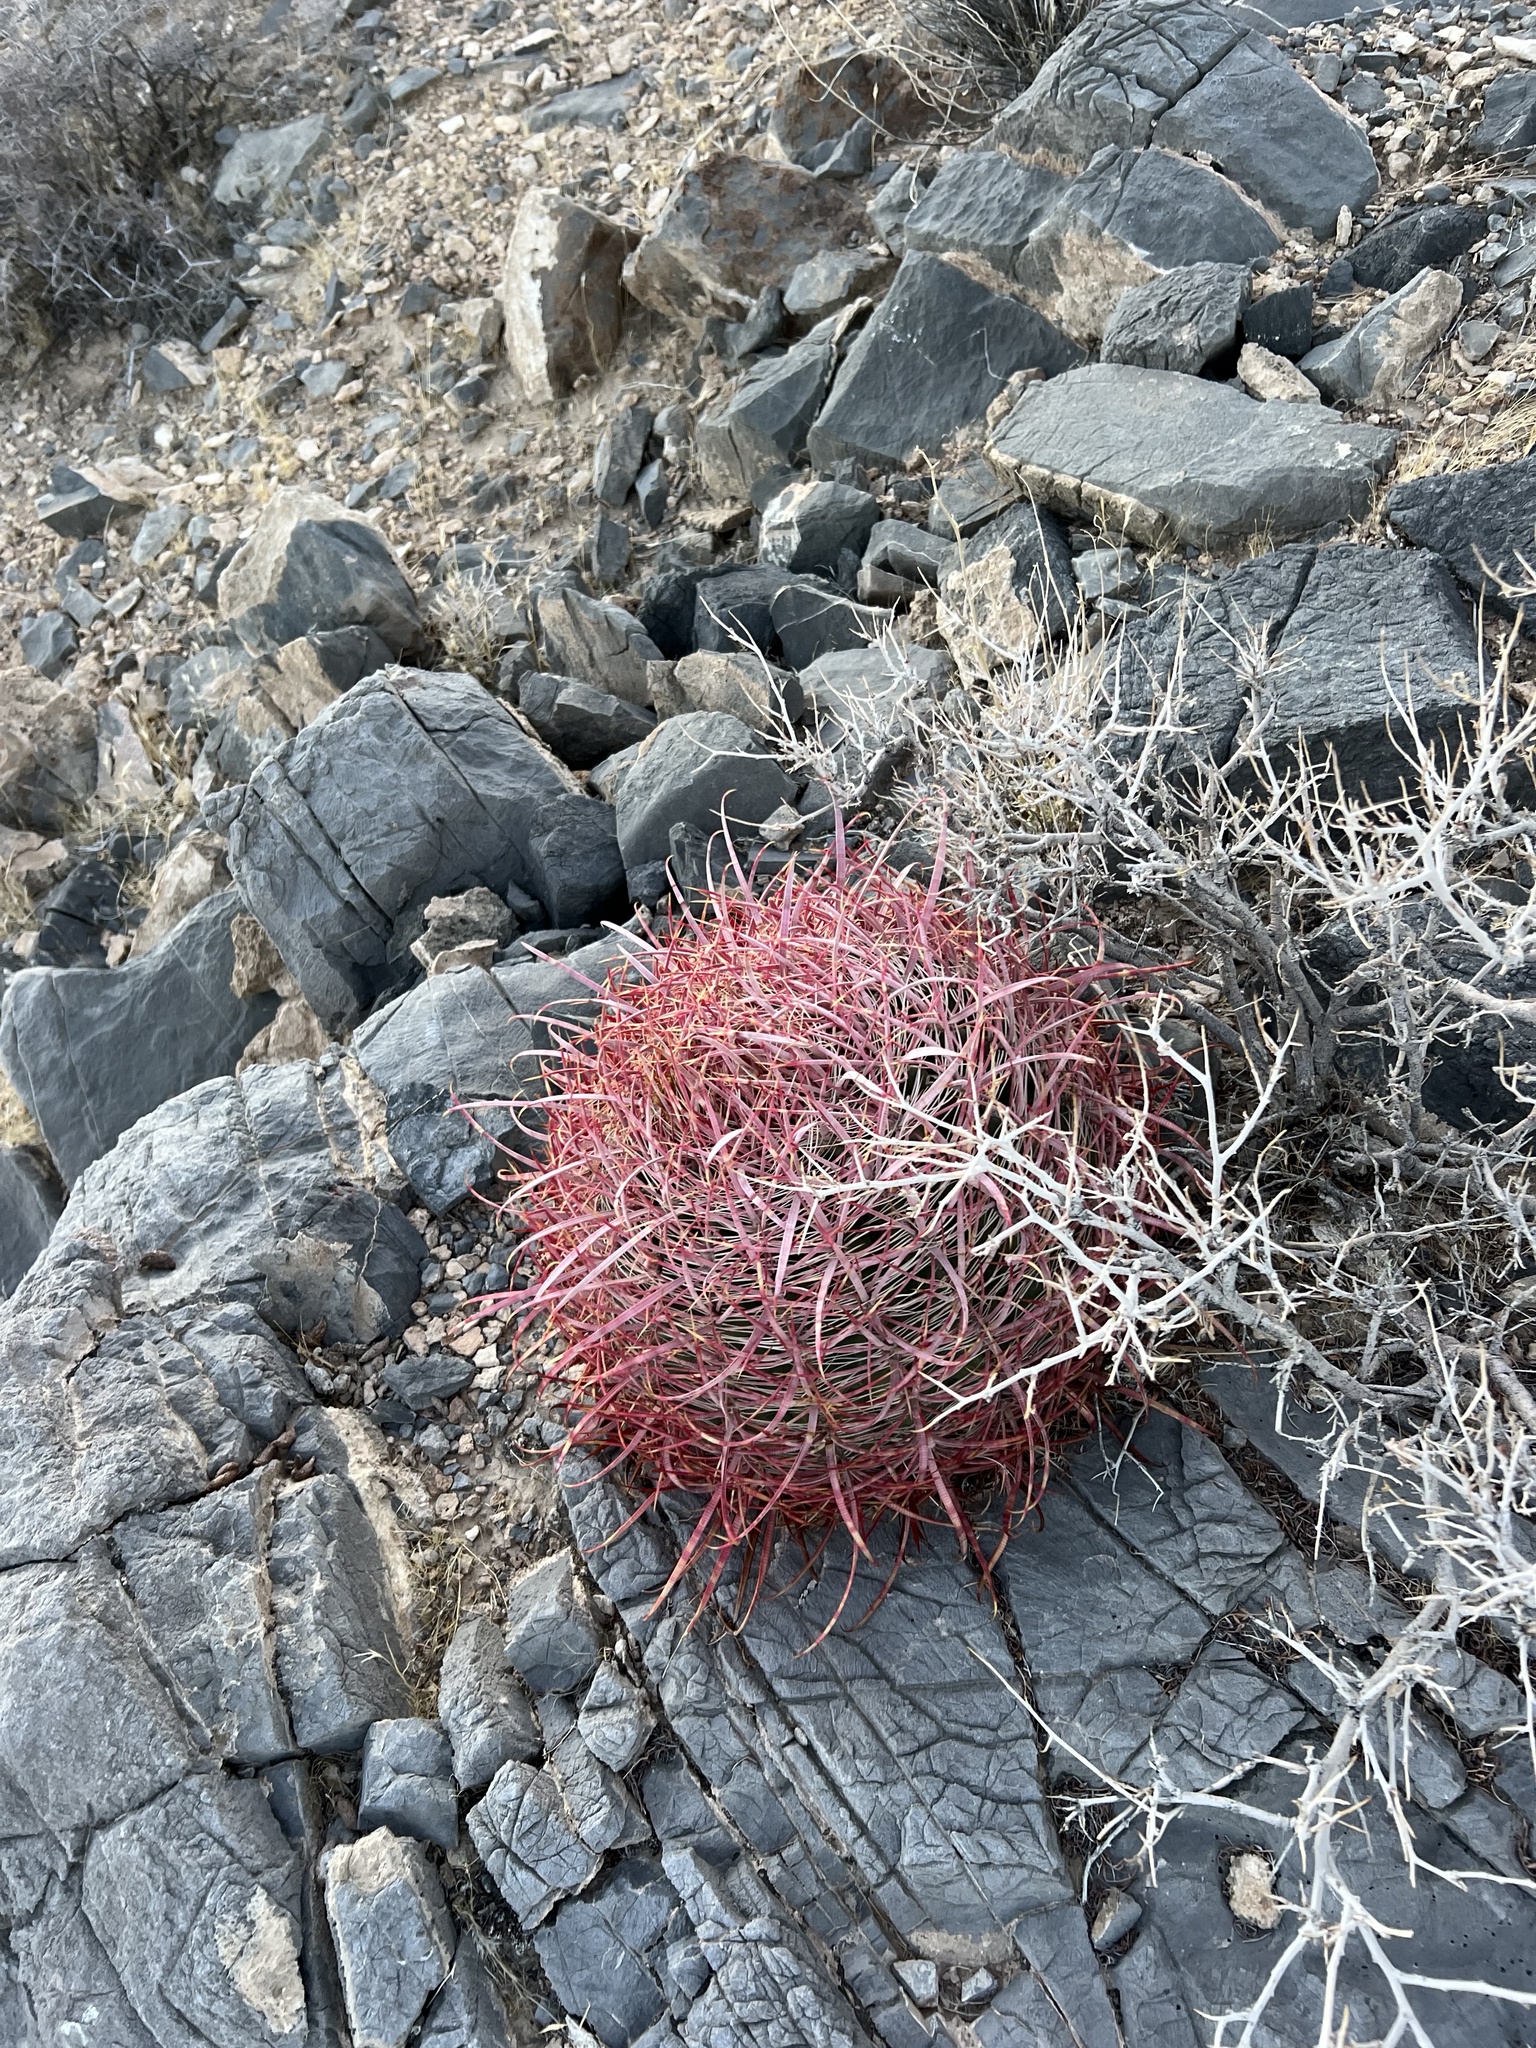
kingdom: Plantae
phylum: Tracheophyta
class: Magnoliopsida
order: Caryophyllales
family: Cactaceae
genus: Ferocactus
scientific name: Ferocactus cylindraceus
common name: California barrel cactus
